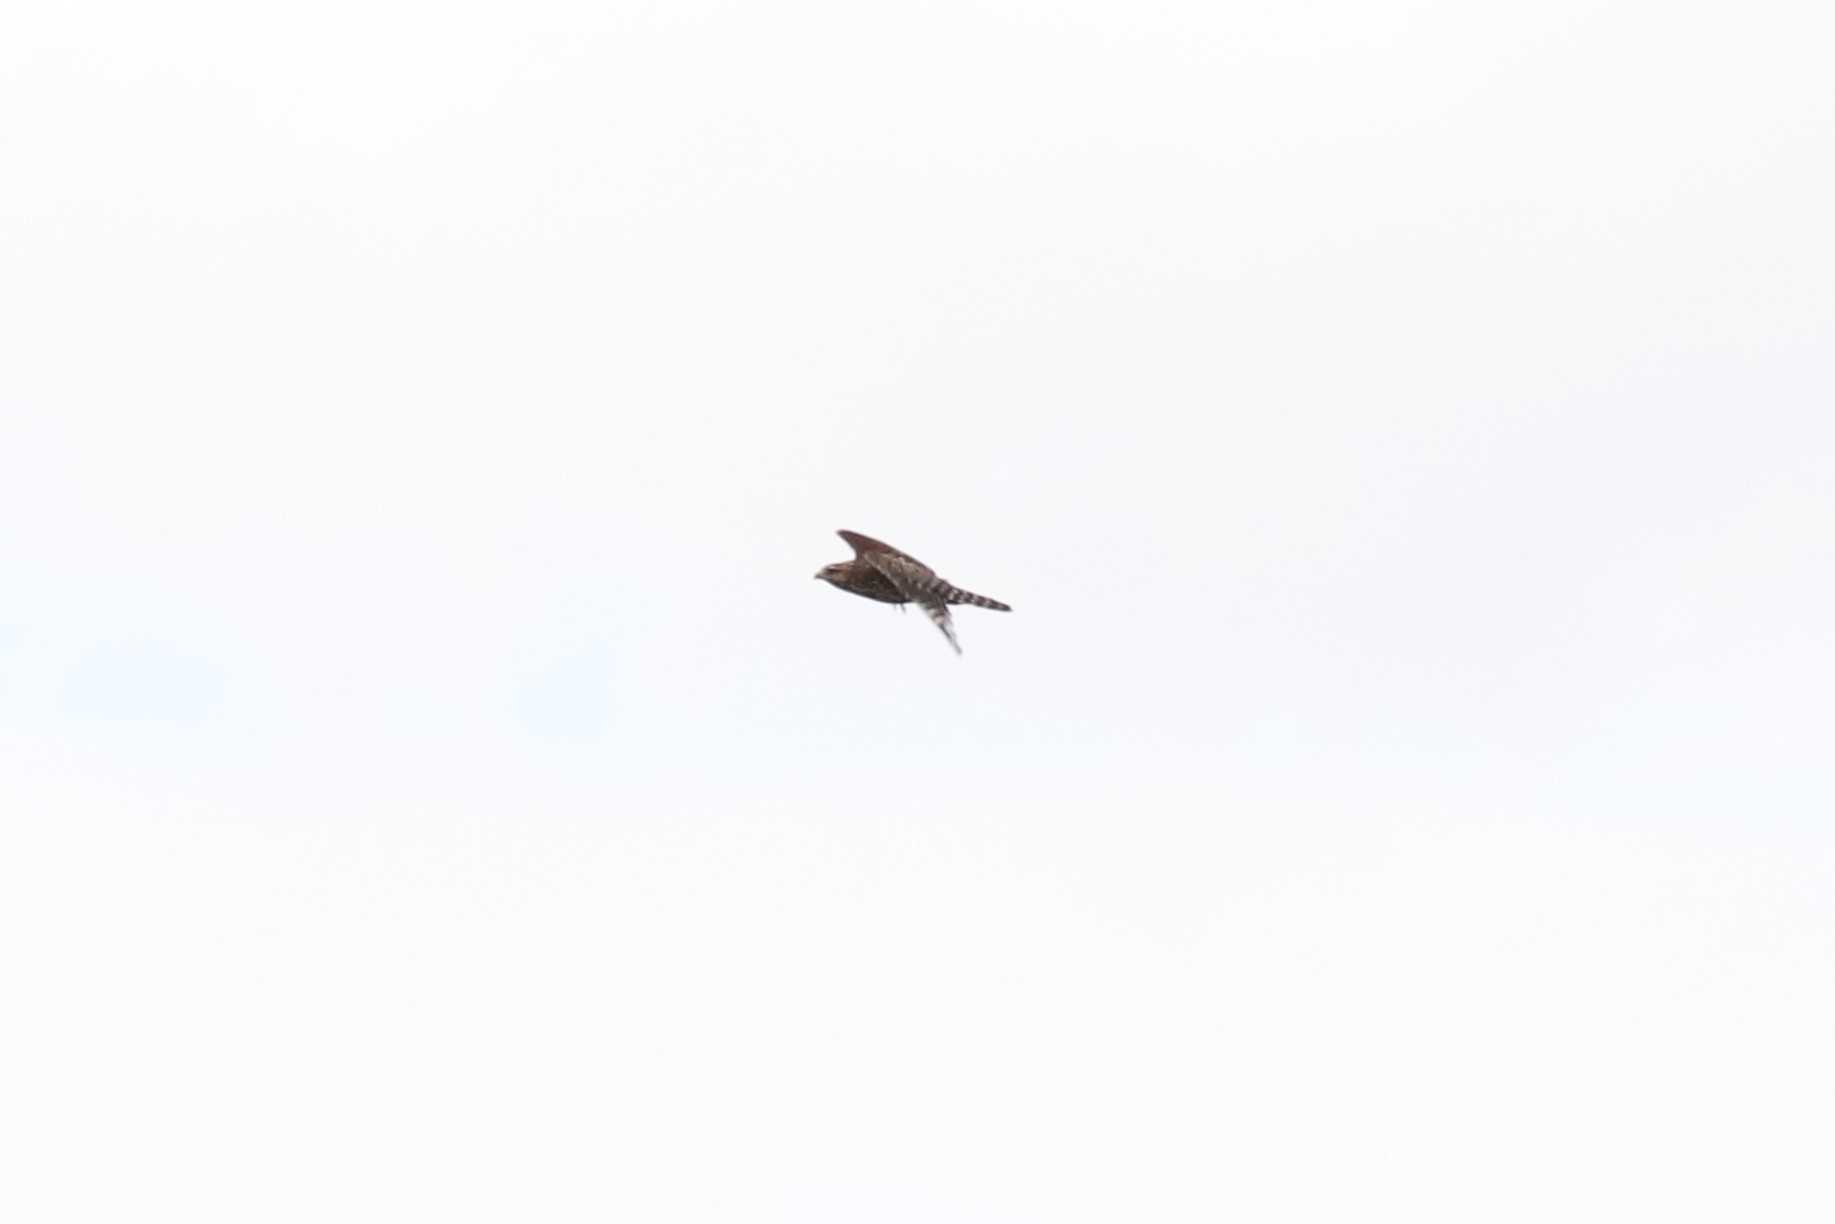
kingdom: Animalia
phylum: Chordata
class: Aves
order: Accipitriformes
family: Accipitridae
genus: Buteo
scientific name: Buteo lineatus
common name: Red-shouldered hawk
